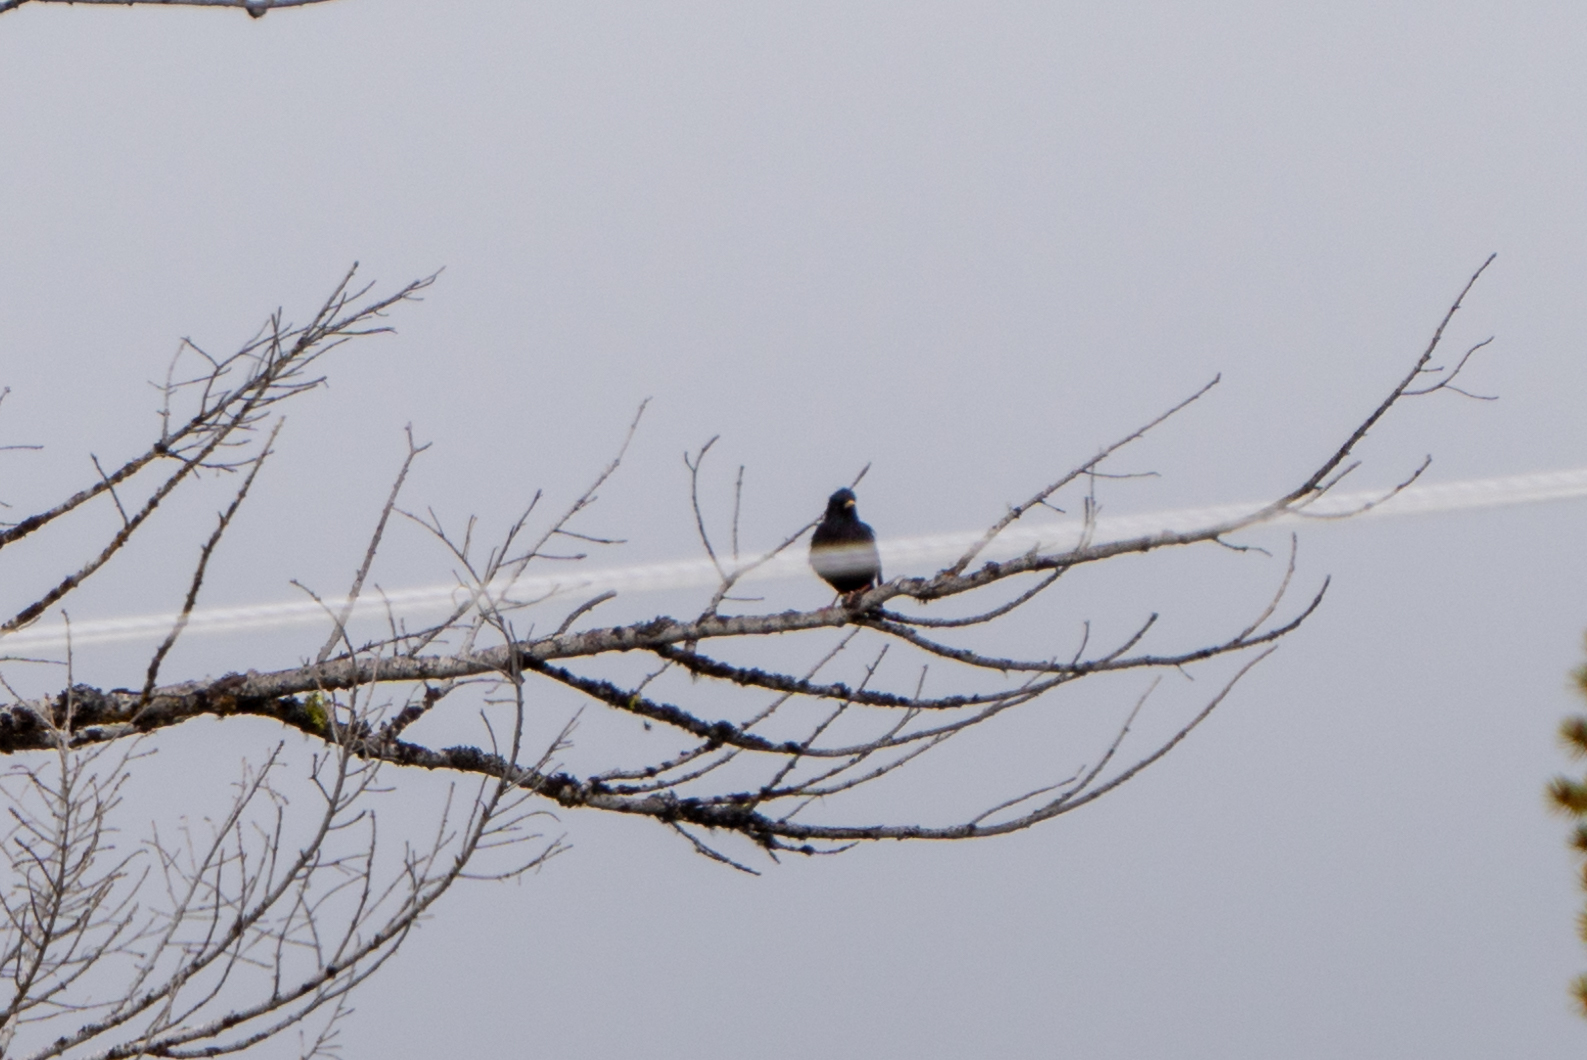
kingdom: Animalia
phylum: Chordata
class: Aves
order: Passeriformes
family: Sturnidae
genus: Sturnus
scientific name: Sturnus vulgaris
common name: Common starling
